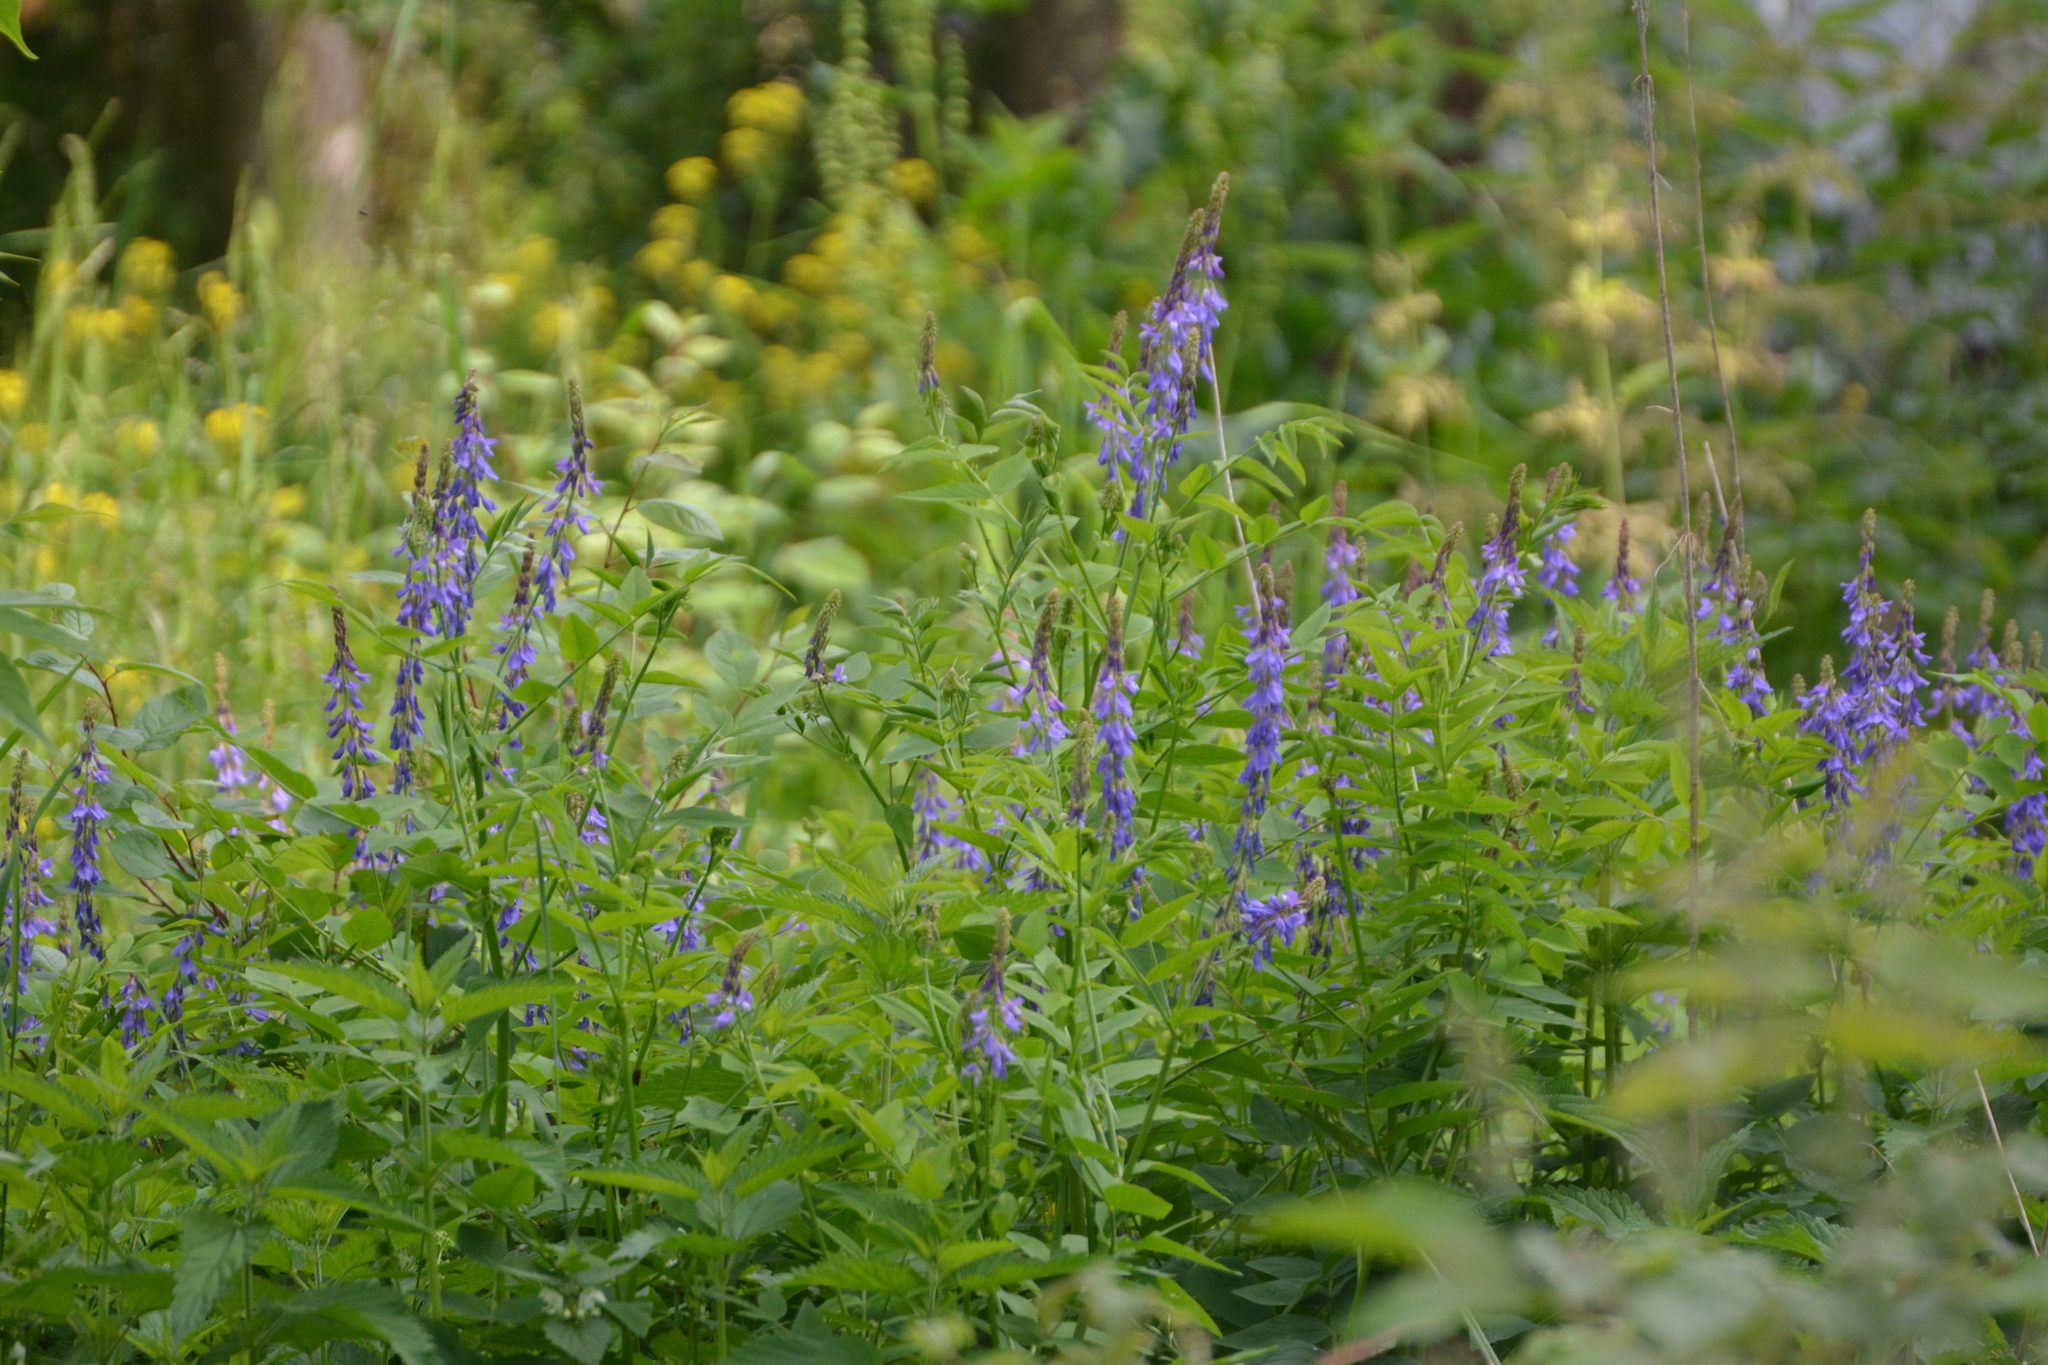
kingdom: Plantae
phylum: Tracheophyta
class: Magnoliopsida
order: Fabales
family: Fabaceae
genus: Galega
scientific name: Galega orientalis
